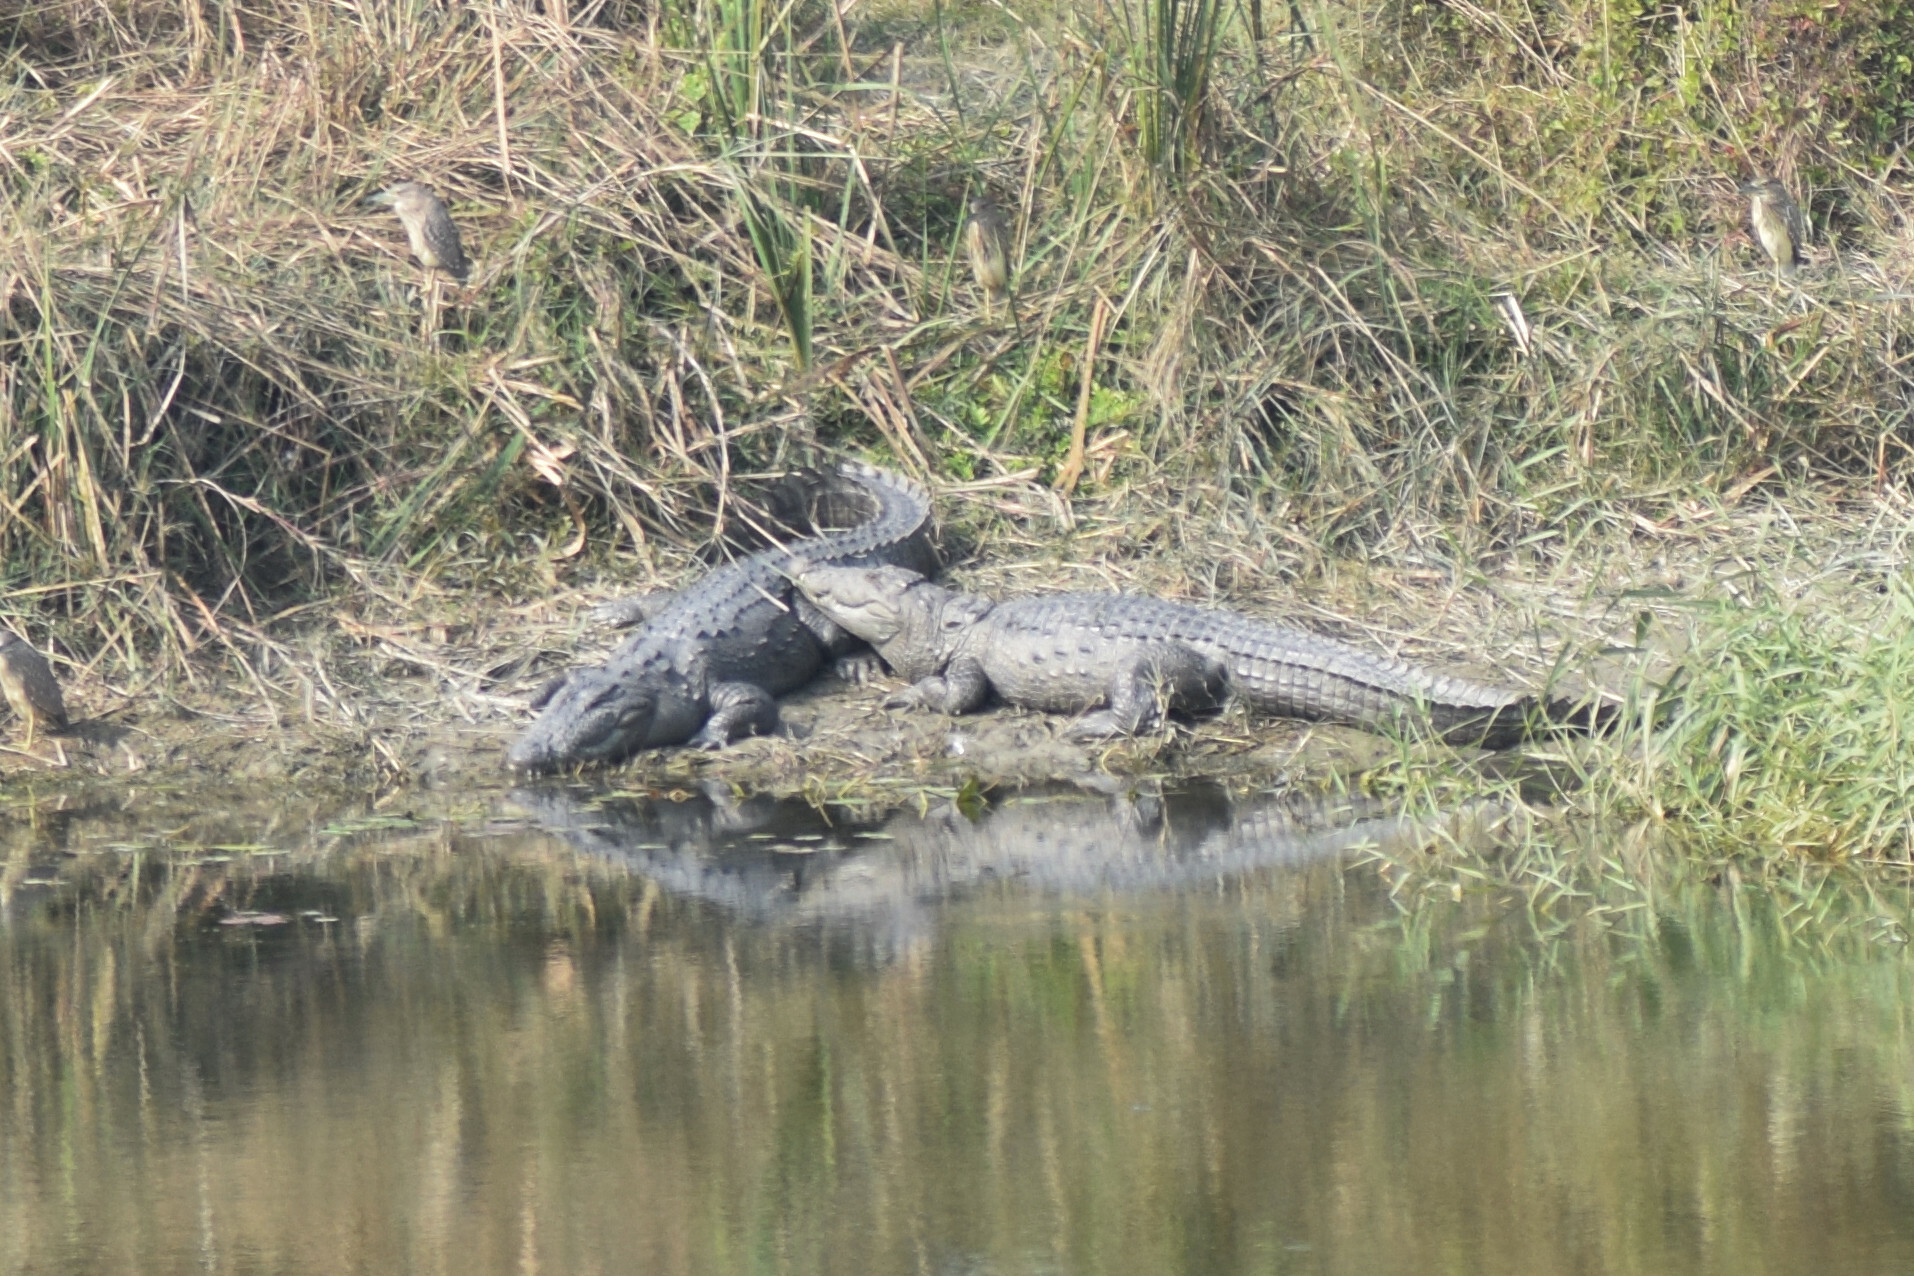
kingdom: Animalia
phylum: Chordata
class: Crocodylia
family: Crocodylidae
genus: Crocodylus
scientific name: Crocodylus palustris
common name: Mugger crocodile
